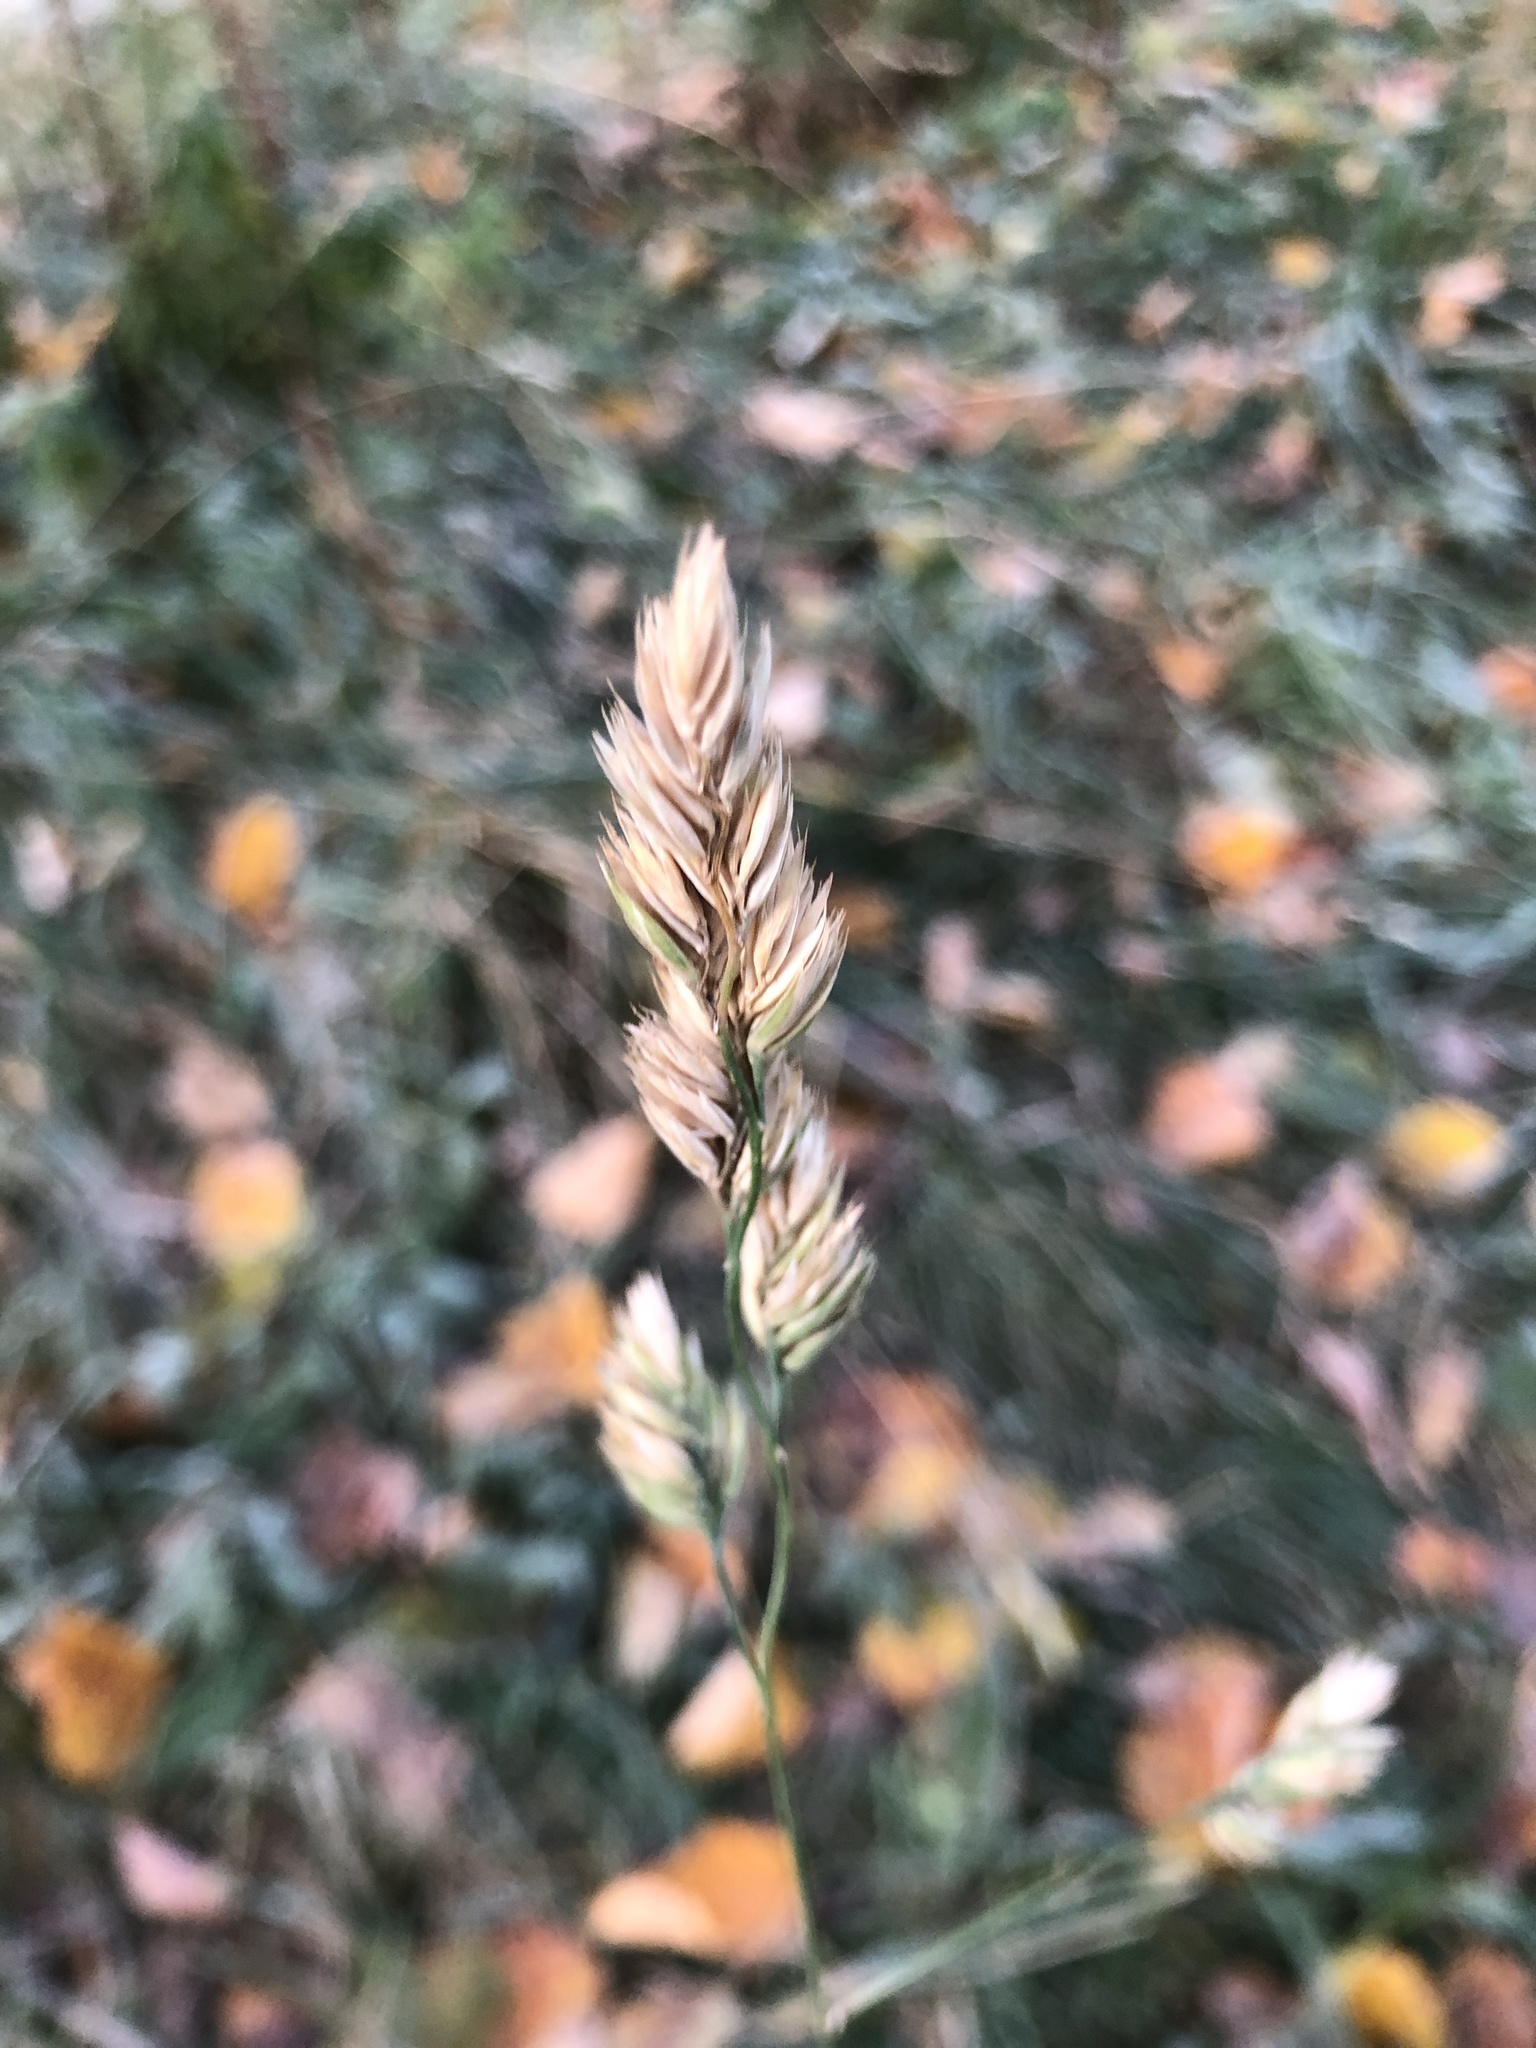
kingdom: Plantae
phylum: Tracheophyta
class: Liliopsida
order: Poales
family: Poaceae
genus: Dactylis
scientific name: Dactylis glomerata
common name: Orchardgrass
